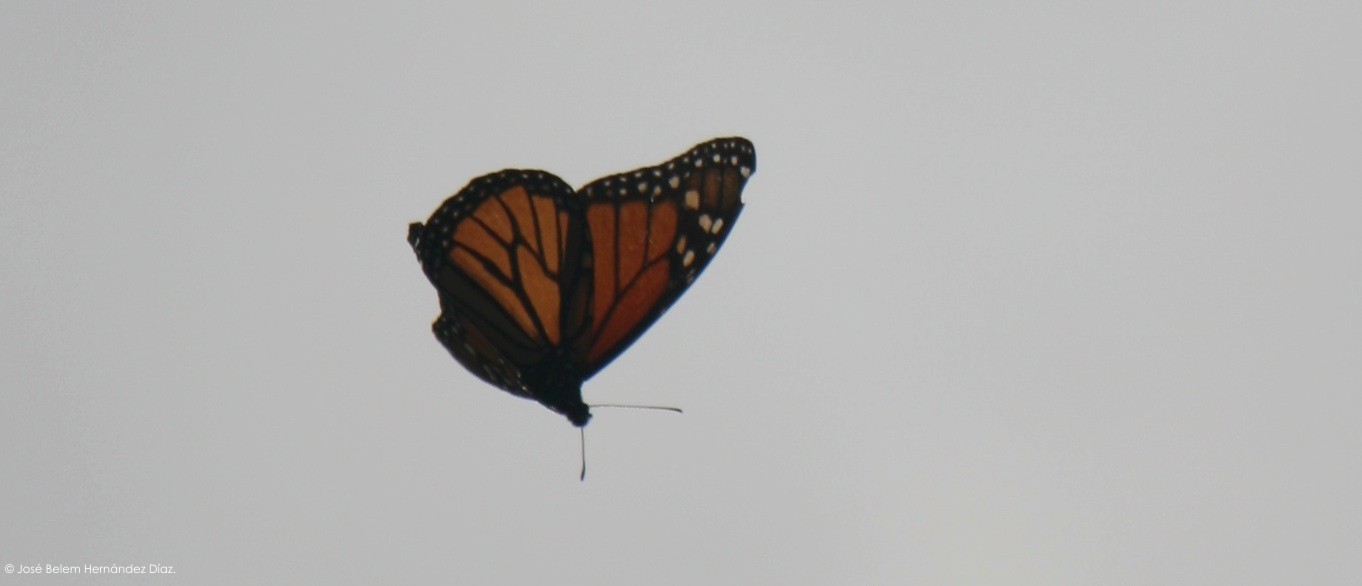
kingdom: Animalia
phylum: Arthropoda
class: Insecta
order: Lepidoptera
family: Nymphalidae
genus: Danaus
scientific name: Danaus plexippus
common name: Monarch
